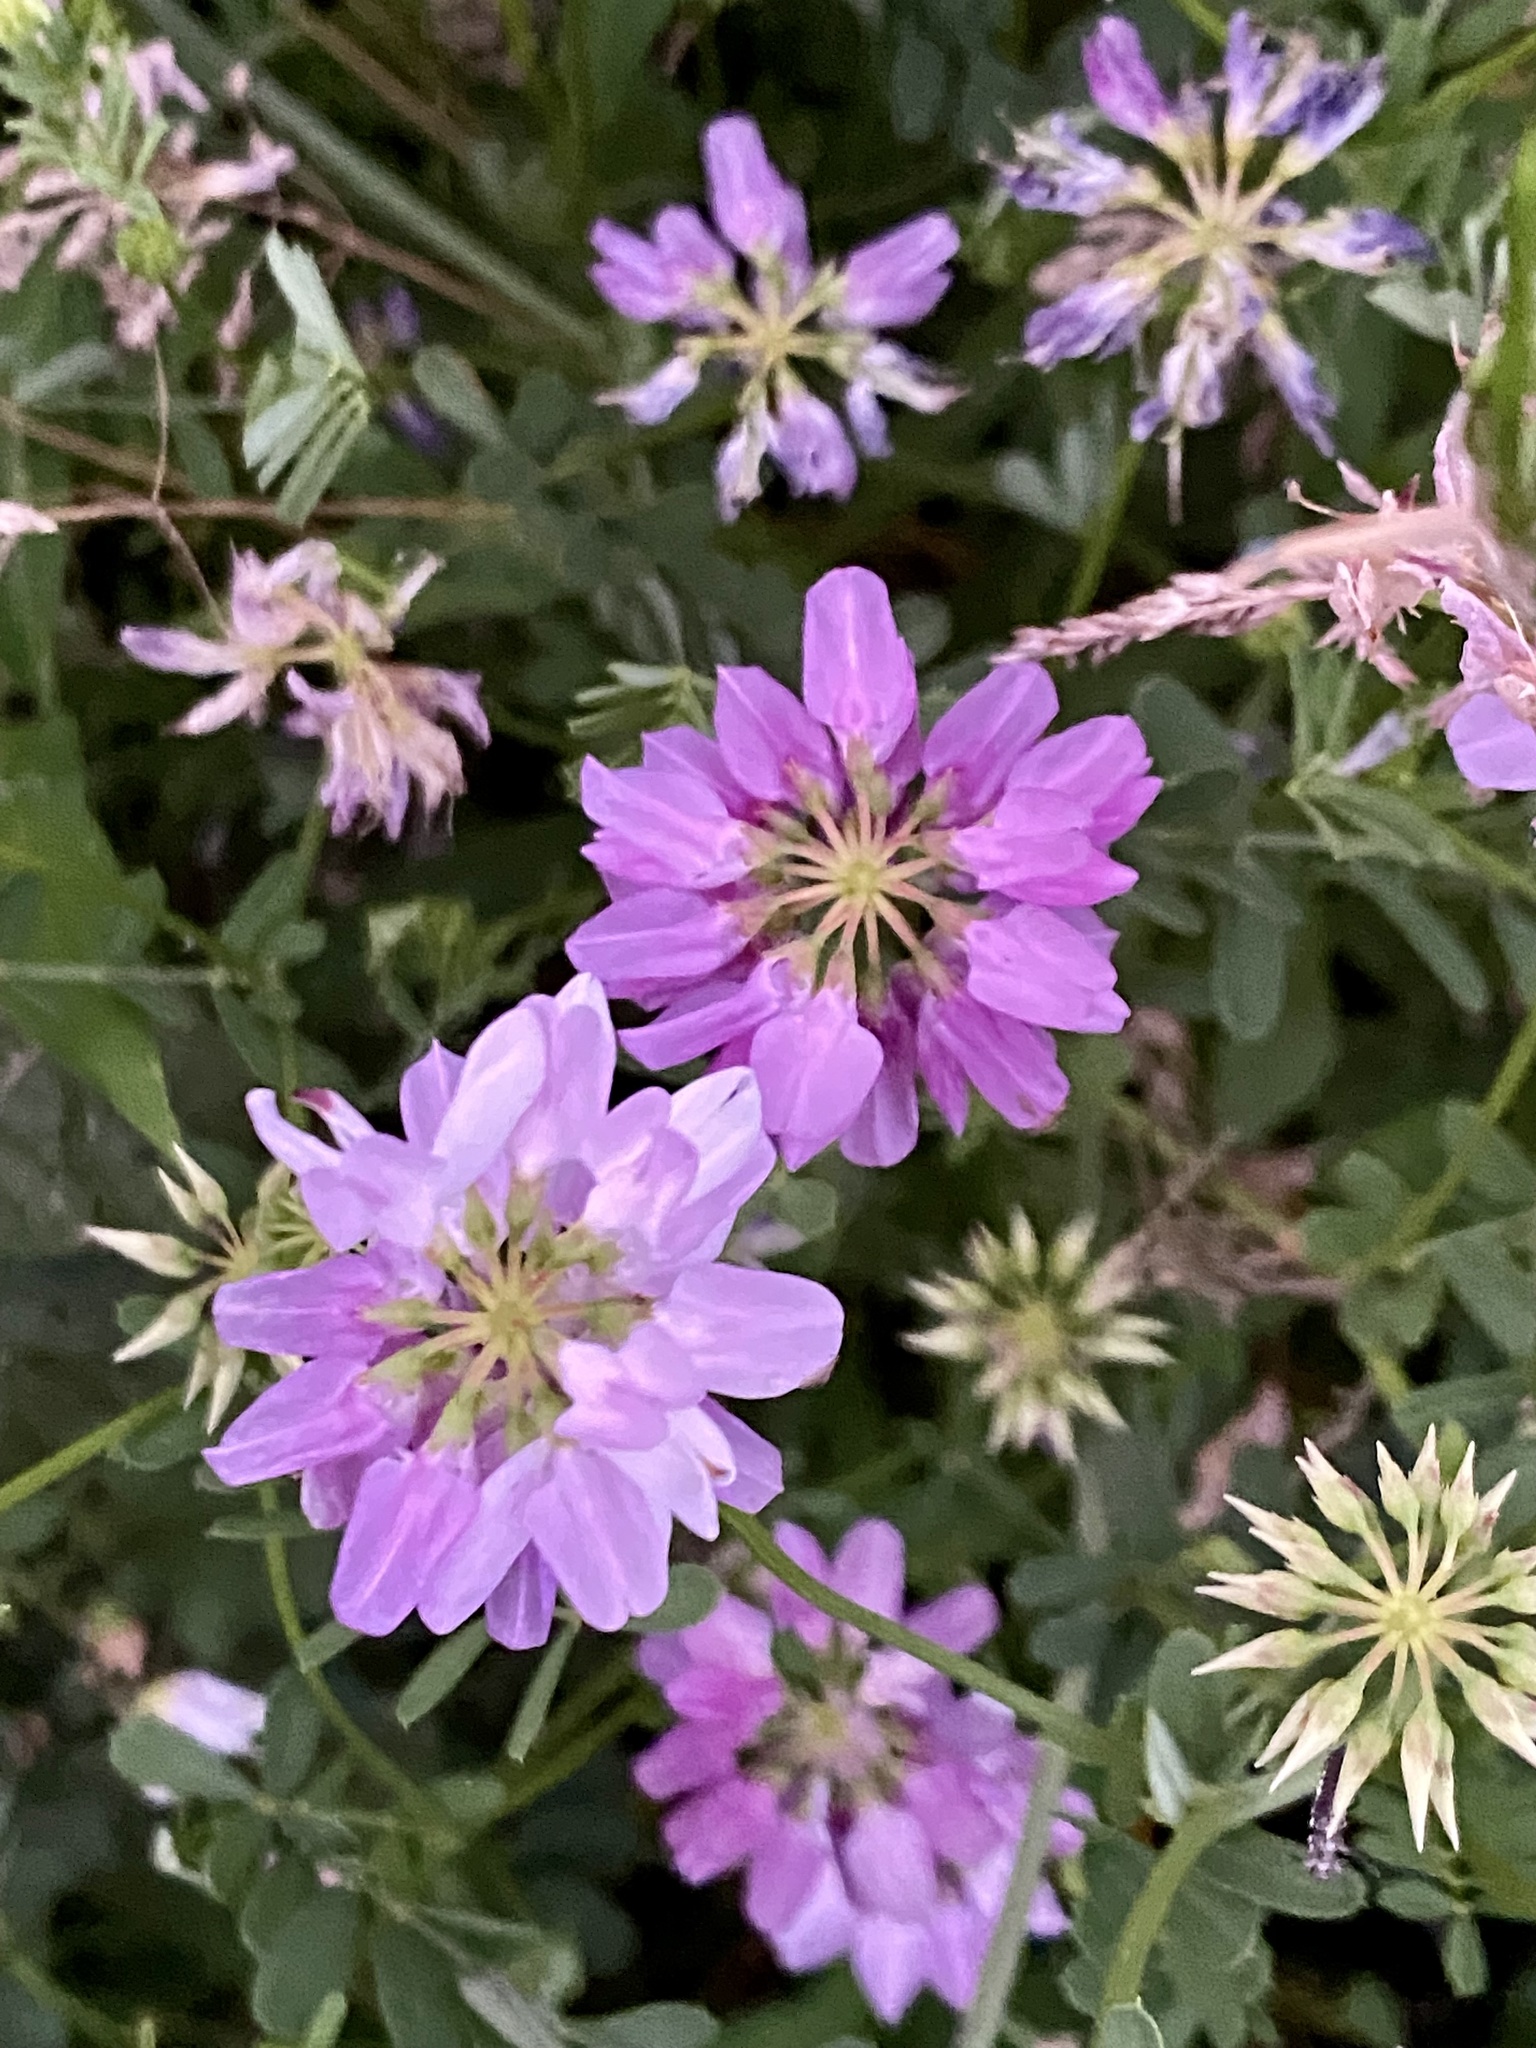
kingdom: Plantae
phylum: Tracheophyta
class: Magnoliopsida
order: Fabales
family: Fabaceae
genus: Coronilla
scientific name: Coronilla varia
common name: Crownvetch
